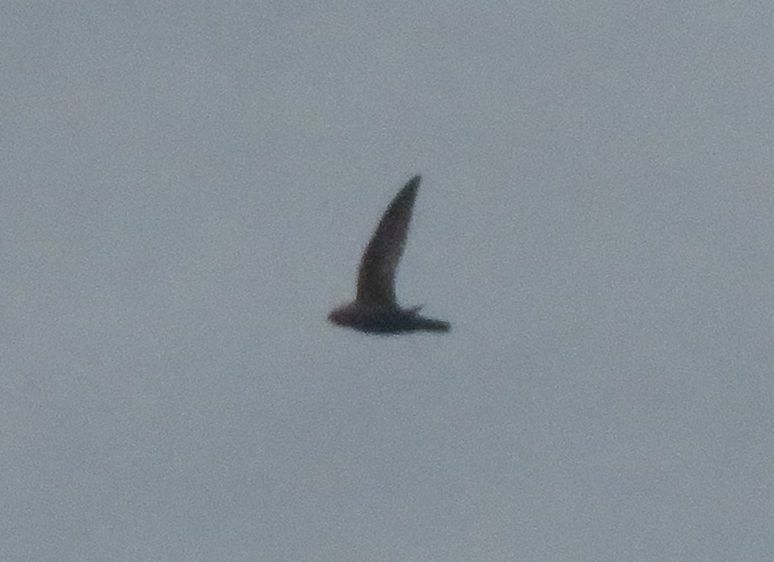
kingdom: Animalia
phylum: Chordata
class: Aves
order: Apodiformes
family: Apodidae
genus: Cypseloides
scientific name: Cypseloides senex
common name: Great dusky swift
